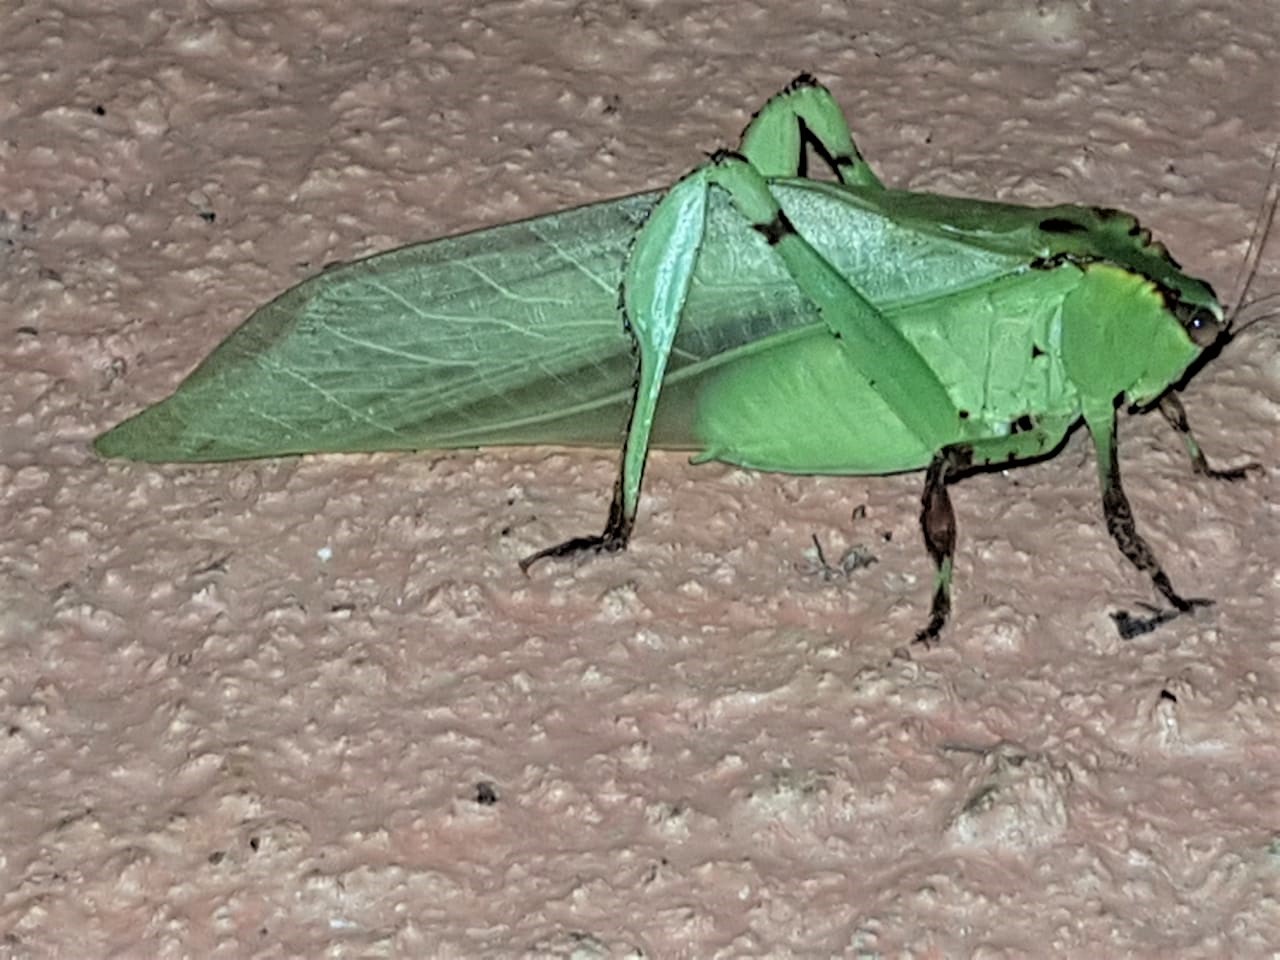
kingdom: Animalia
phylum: Arthropoda
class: Insecta
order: Orthoptera
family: Tettigoniidae
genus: Cnemidophyllum
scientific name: Cnemidophyllum lineatum
